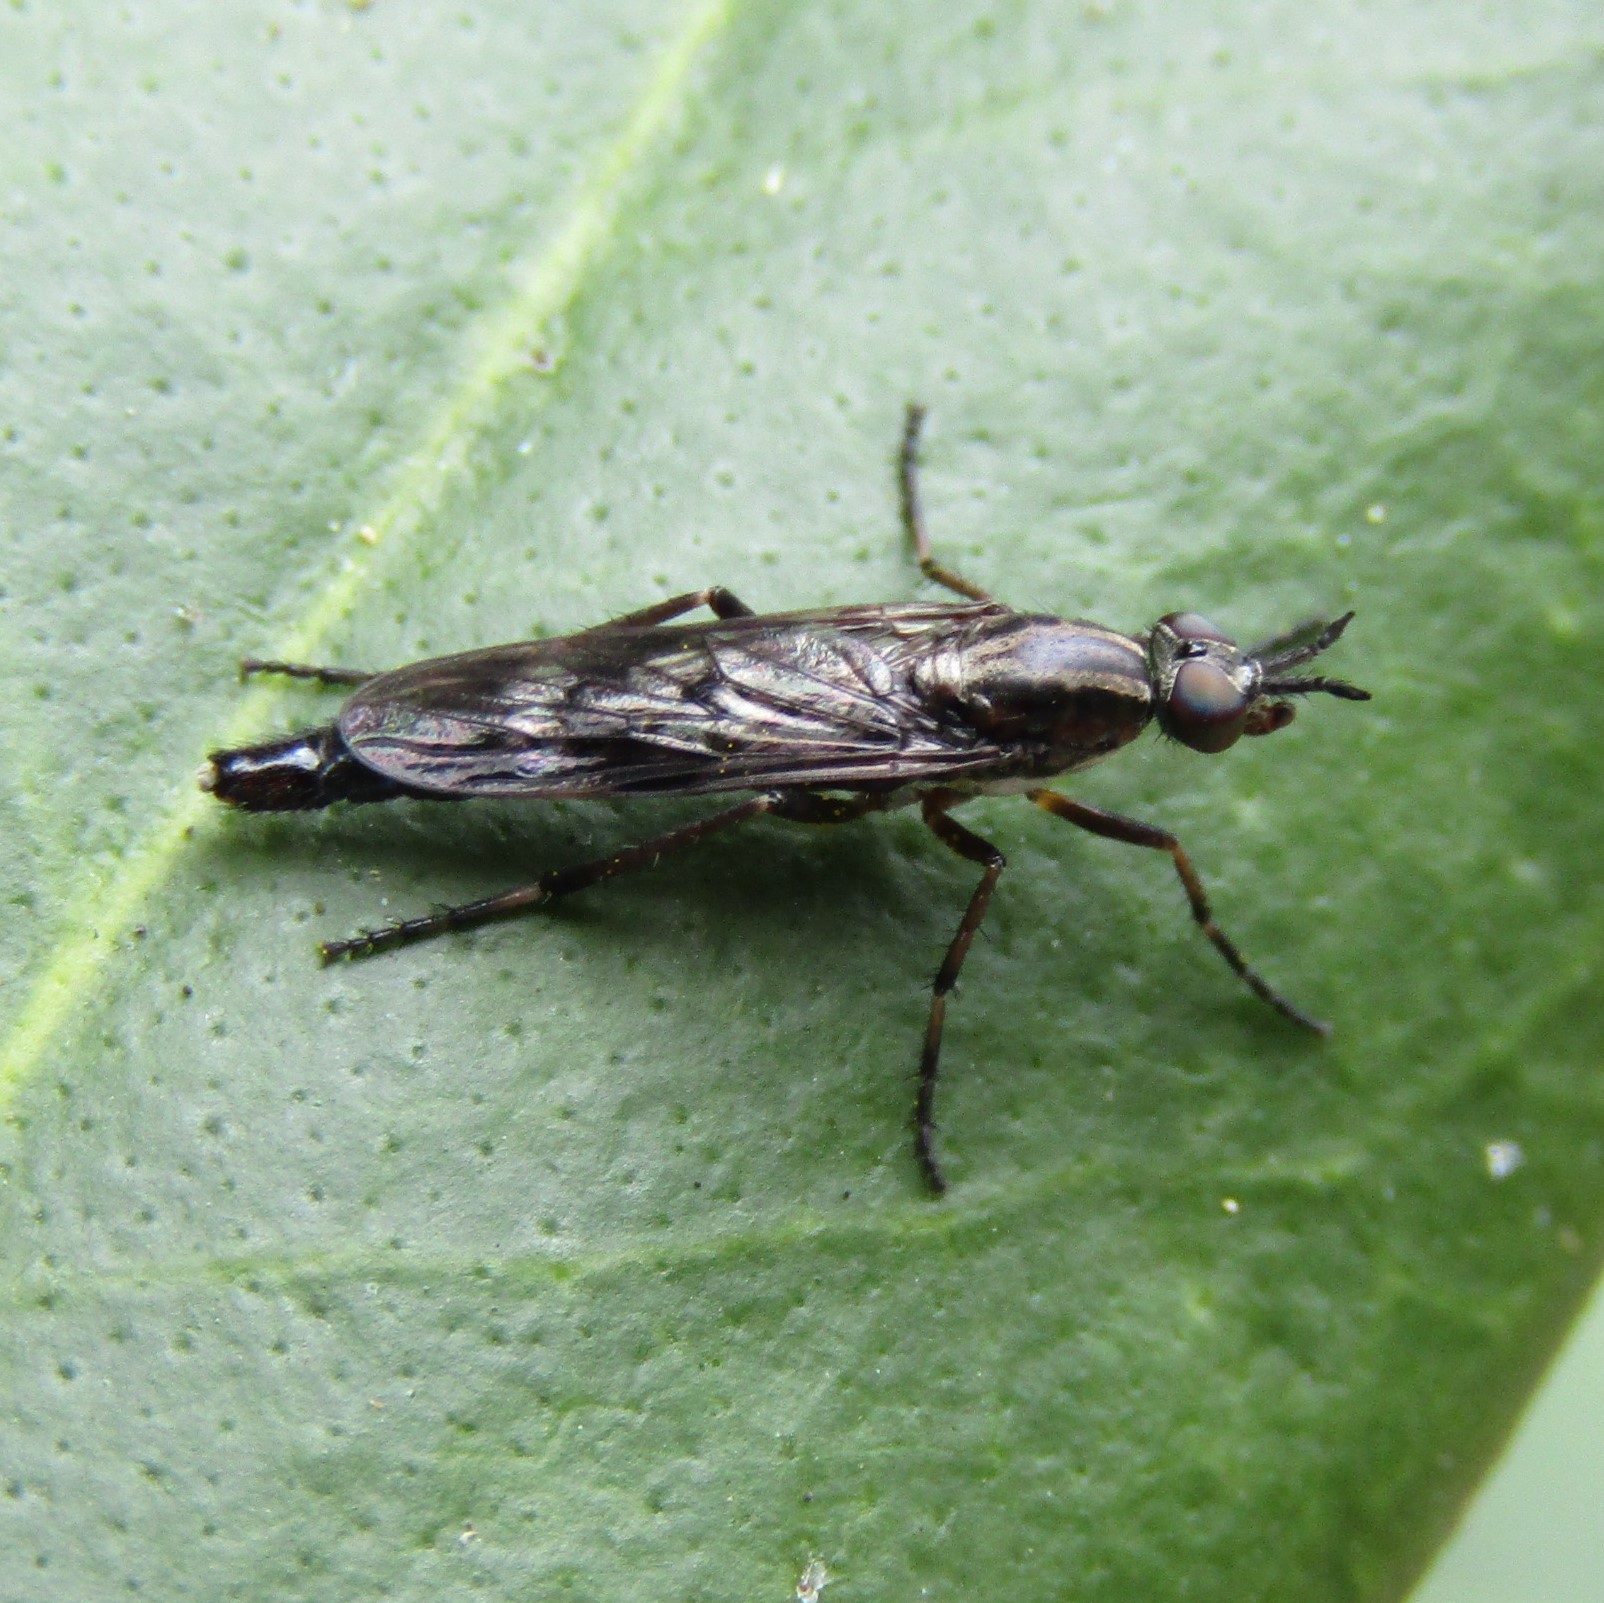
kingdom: Animalia
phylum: Arthropoda
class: Insecta
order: Diptera
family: Therevidae
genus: Anabarhynchus
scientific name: Anabarhynchus cupreus
